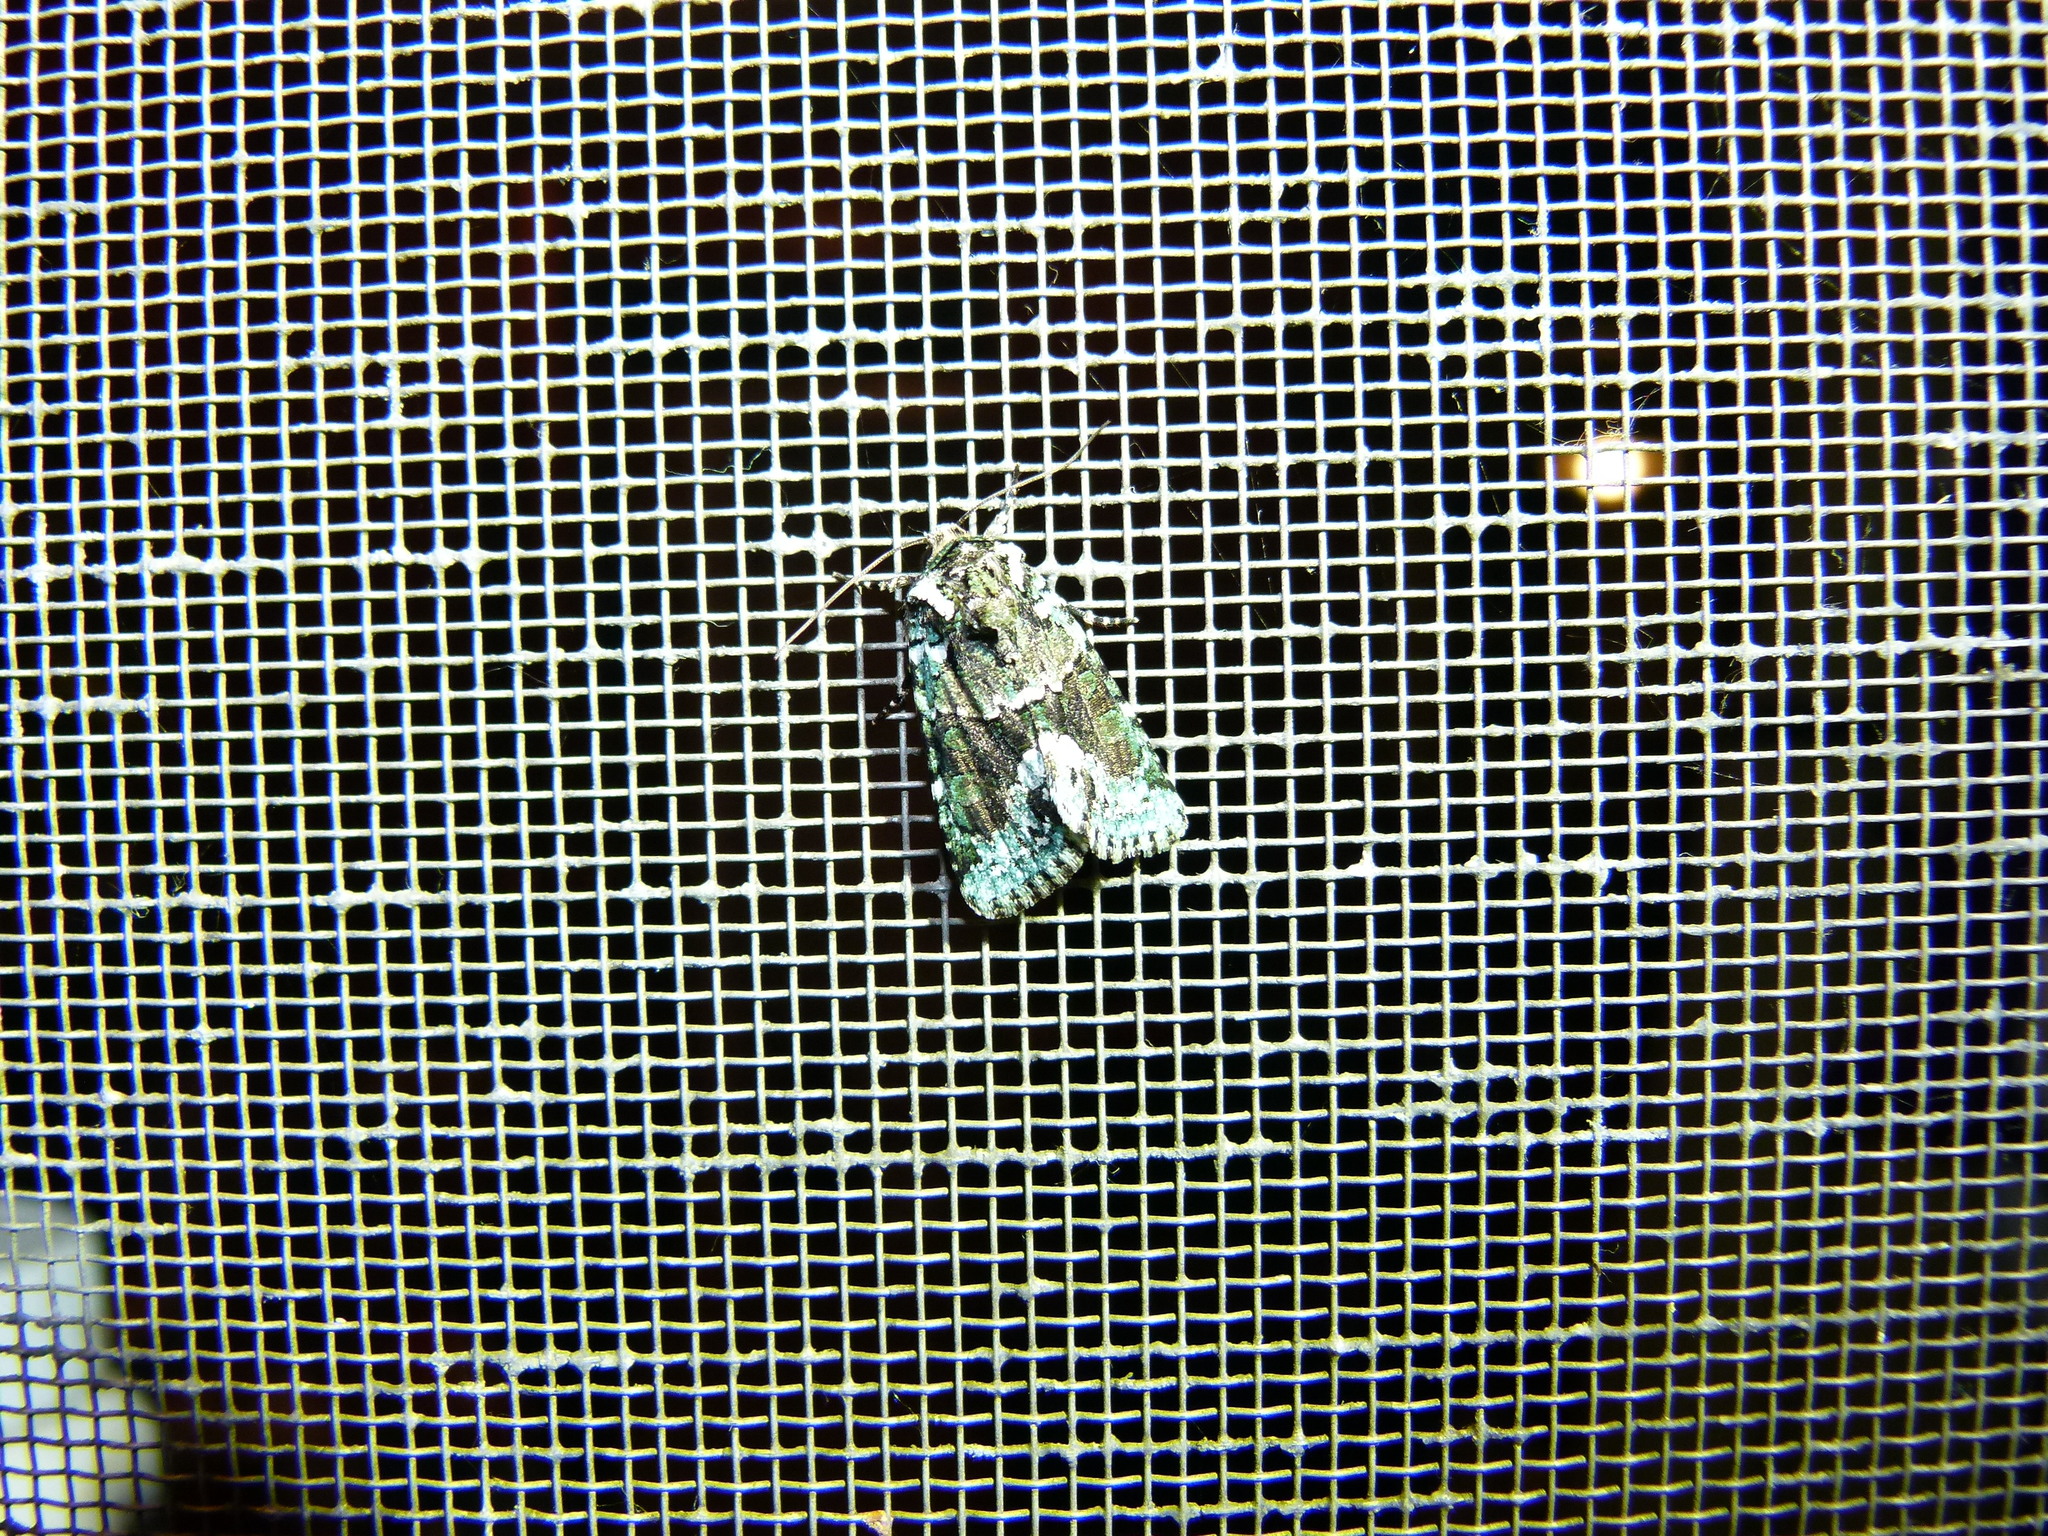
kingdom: Animalia
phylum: Arthropoda
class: Insecta
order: Lepidoptera
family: Noctuidae
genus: Lacinipolia
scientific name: Lacinipolia explicata
